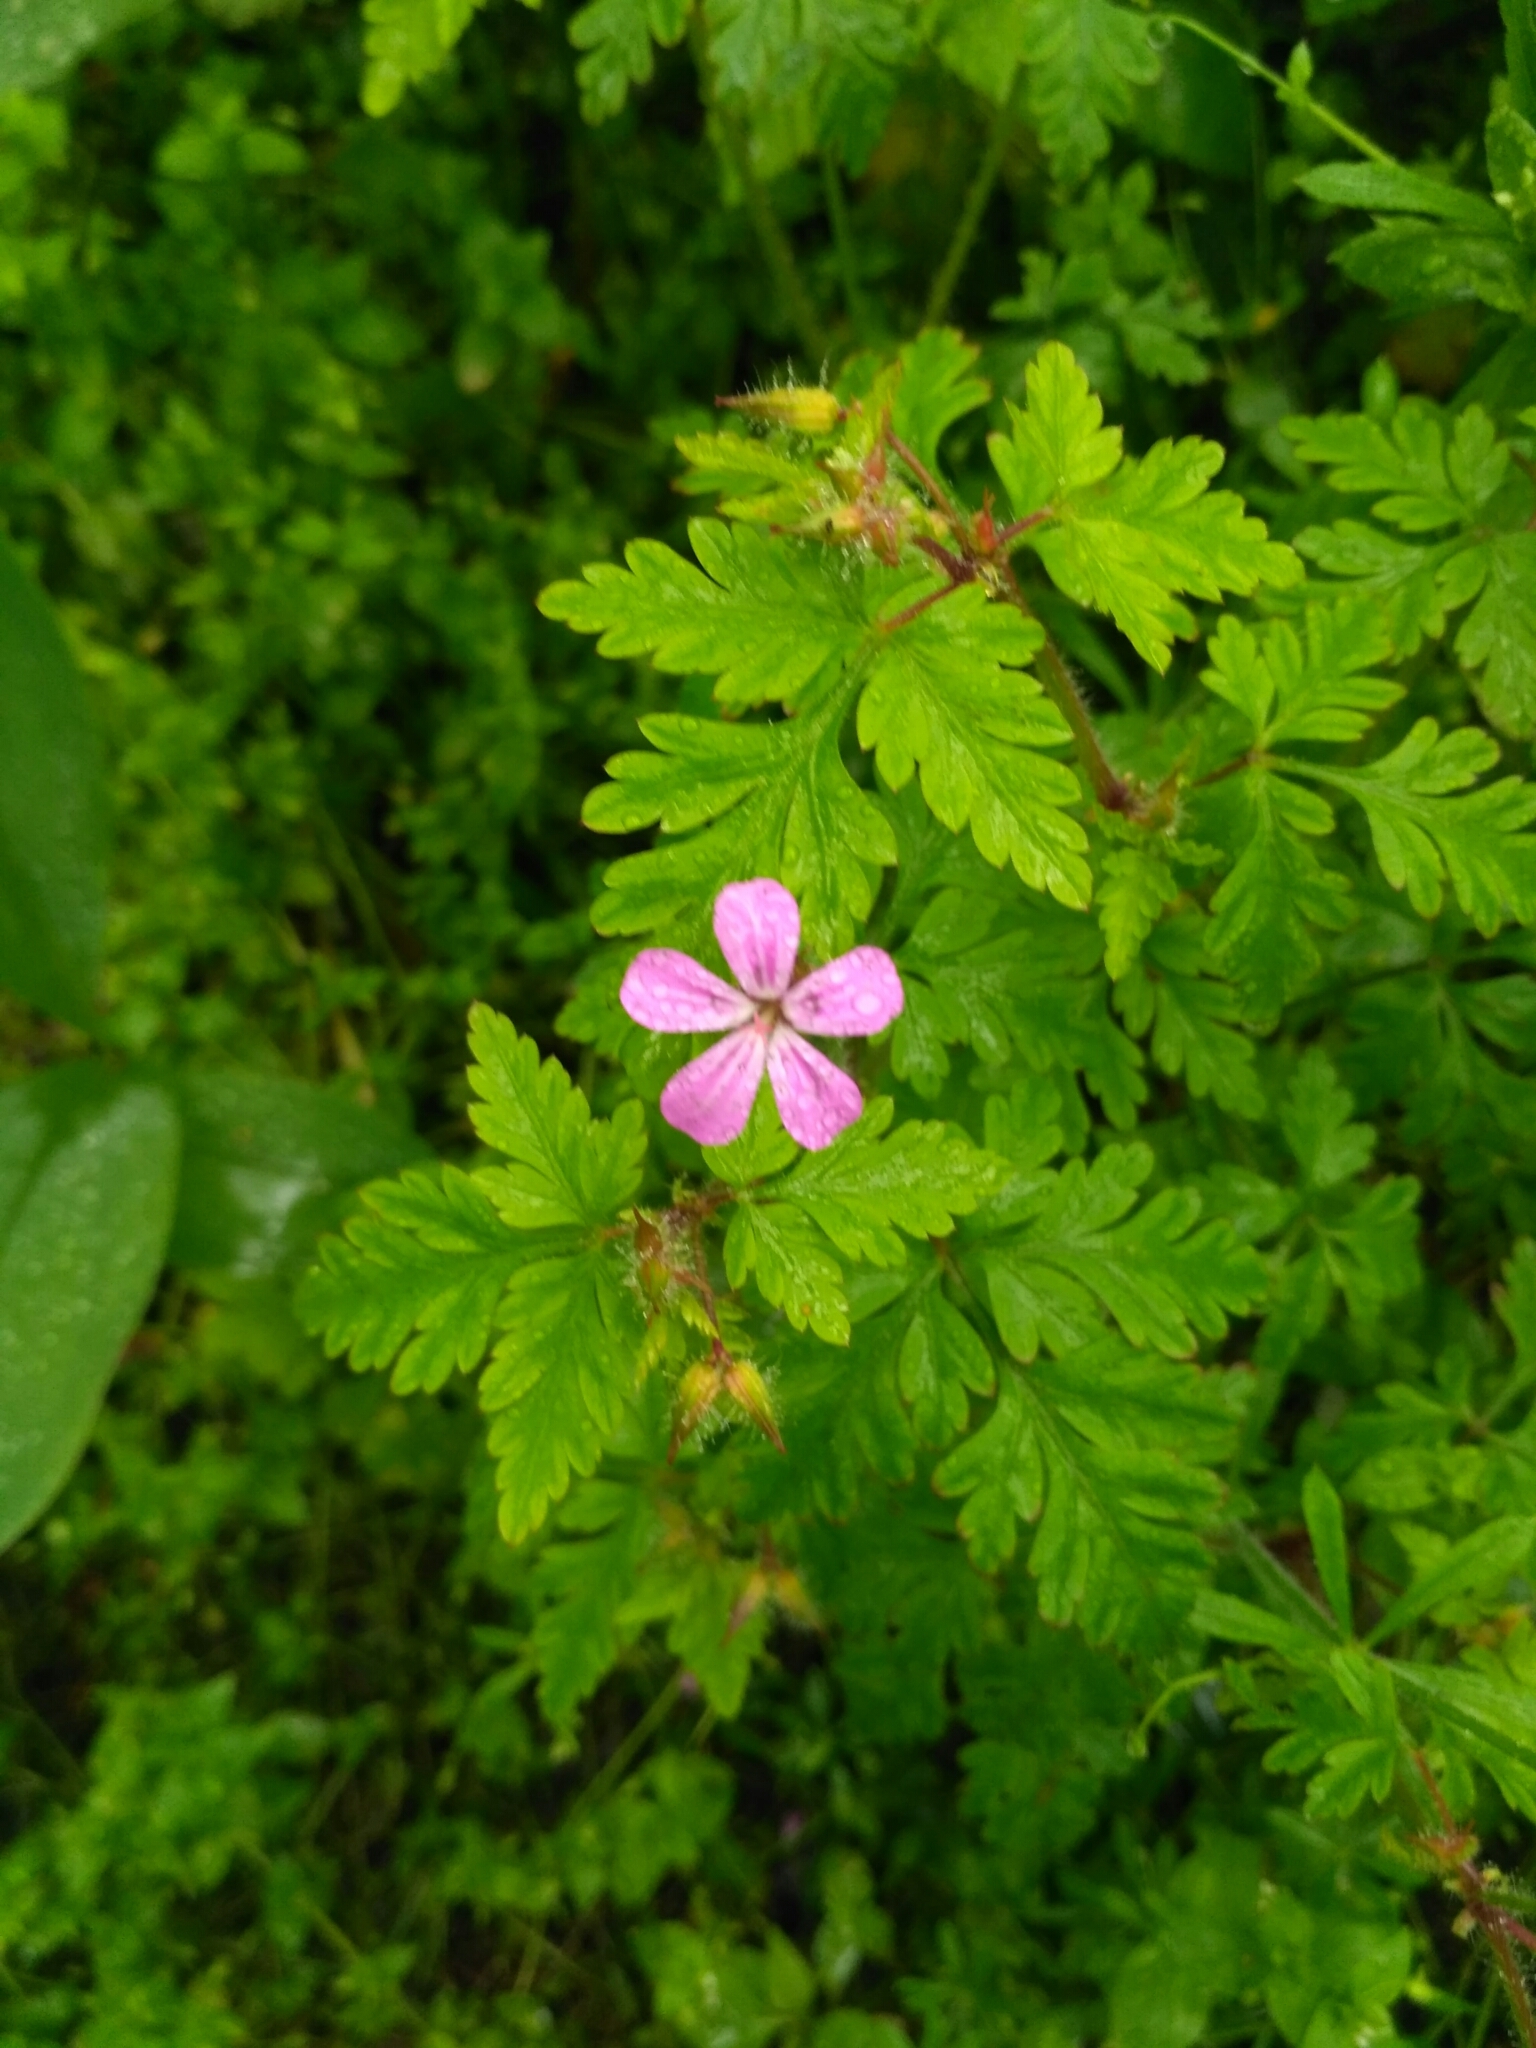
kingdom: Plantae
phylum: Tracheophyta
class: Magnoliopsida
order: Geraniales
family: Geraniaceae
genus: Geranium
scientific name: Geranium robertianum
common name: Herb-robert
